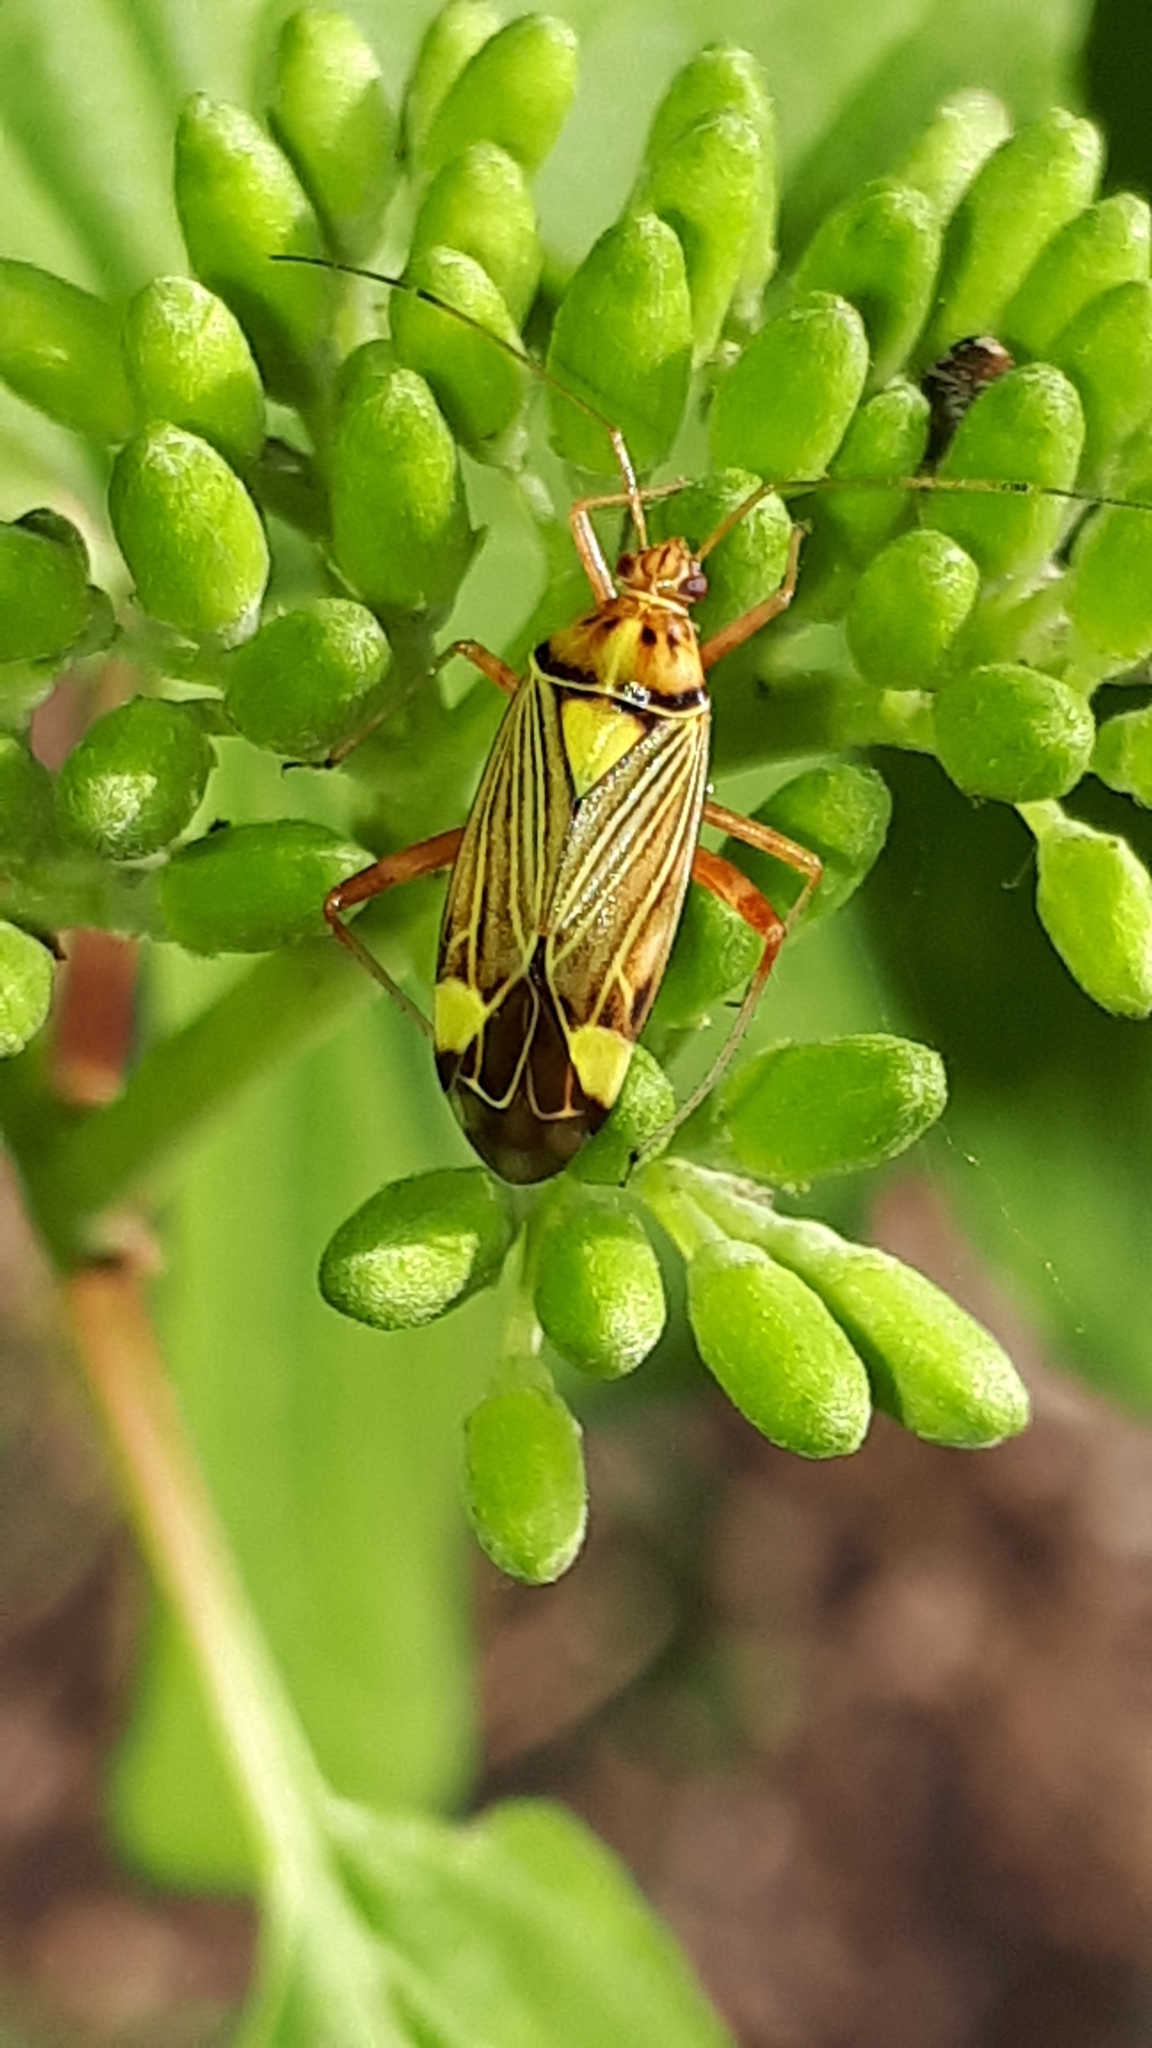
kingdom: Animalia
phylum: Arthropoda
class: Insecta
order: Hemiptera
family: Miridae
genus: Rhabdomiris
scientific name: Rhabdomiris striatellus
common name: Plant bug
